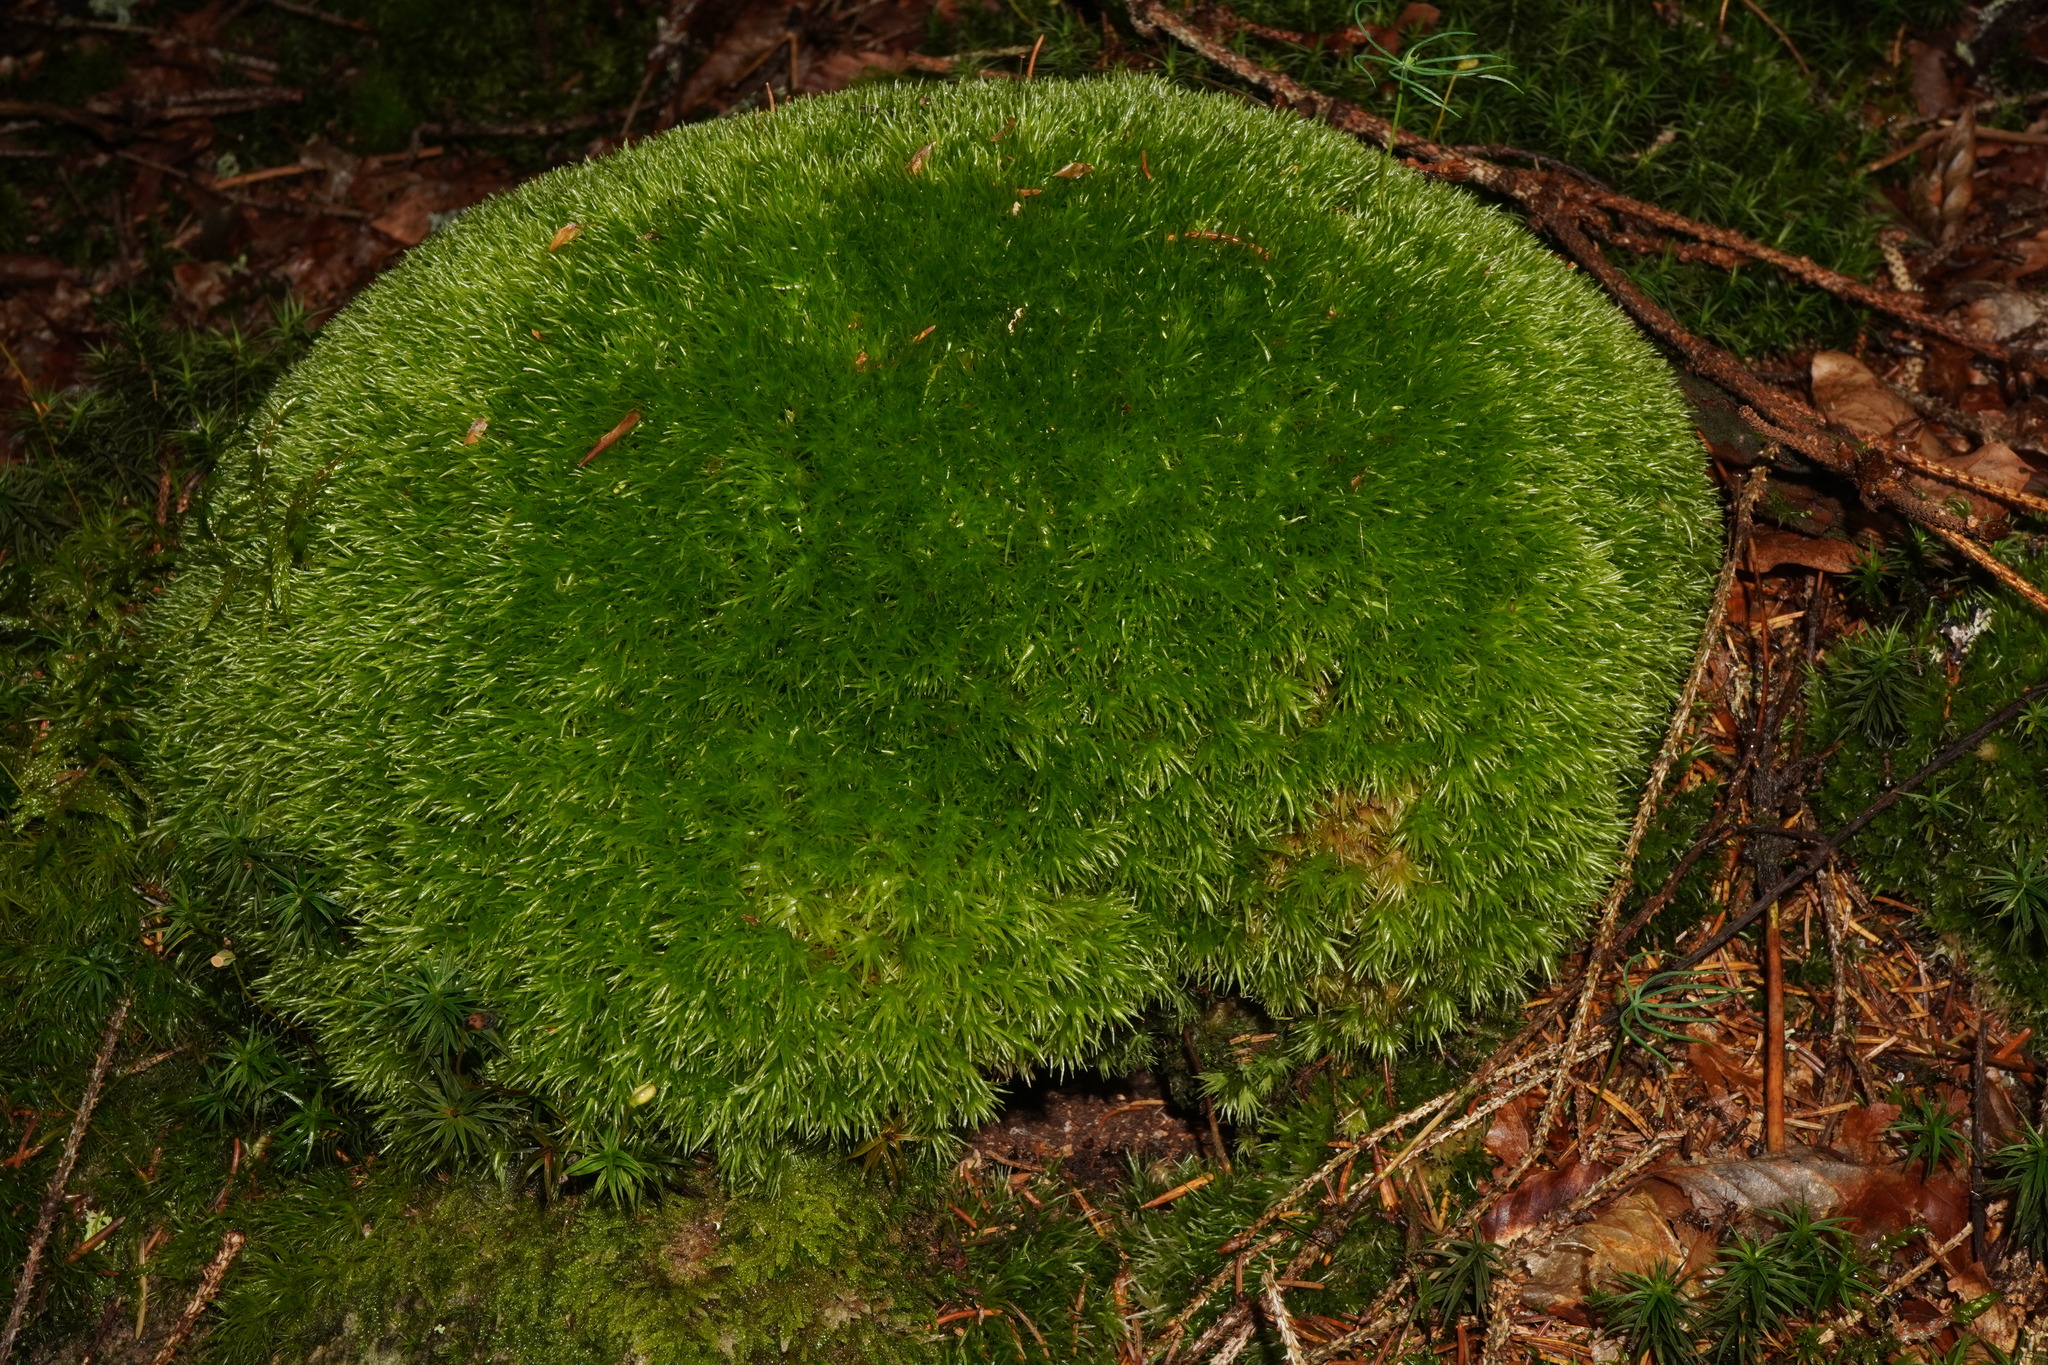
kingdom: Plantae
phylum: Bryophyta
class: Bryopsida
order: Dicranales
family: Leucobryaceae
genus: Leucobryum
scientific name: Leucobryum glaucum
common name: Large white-moss
